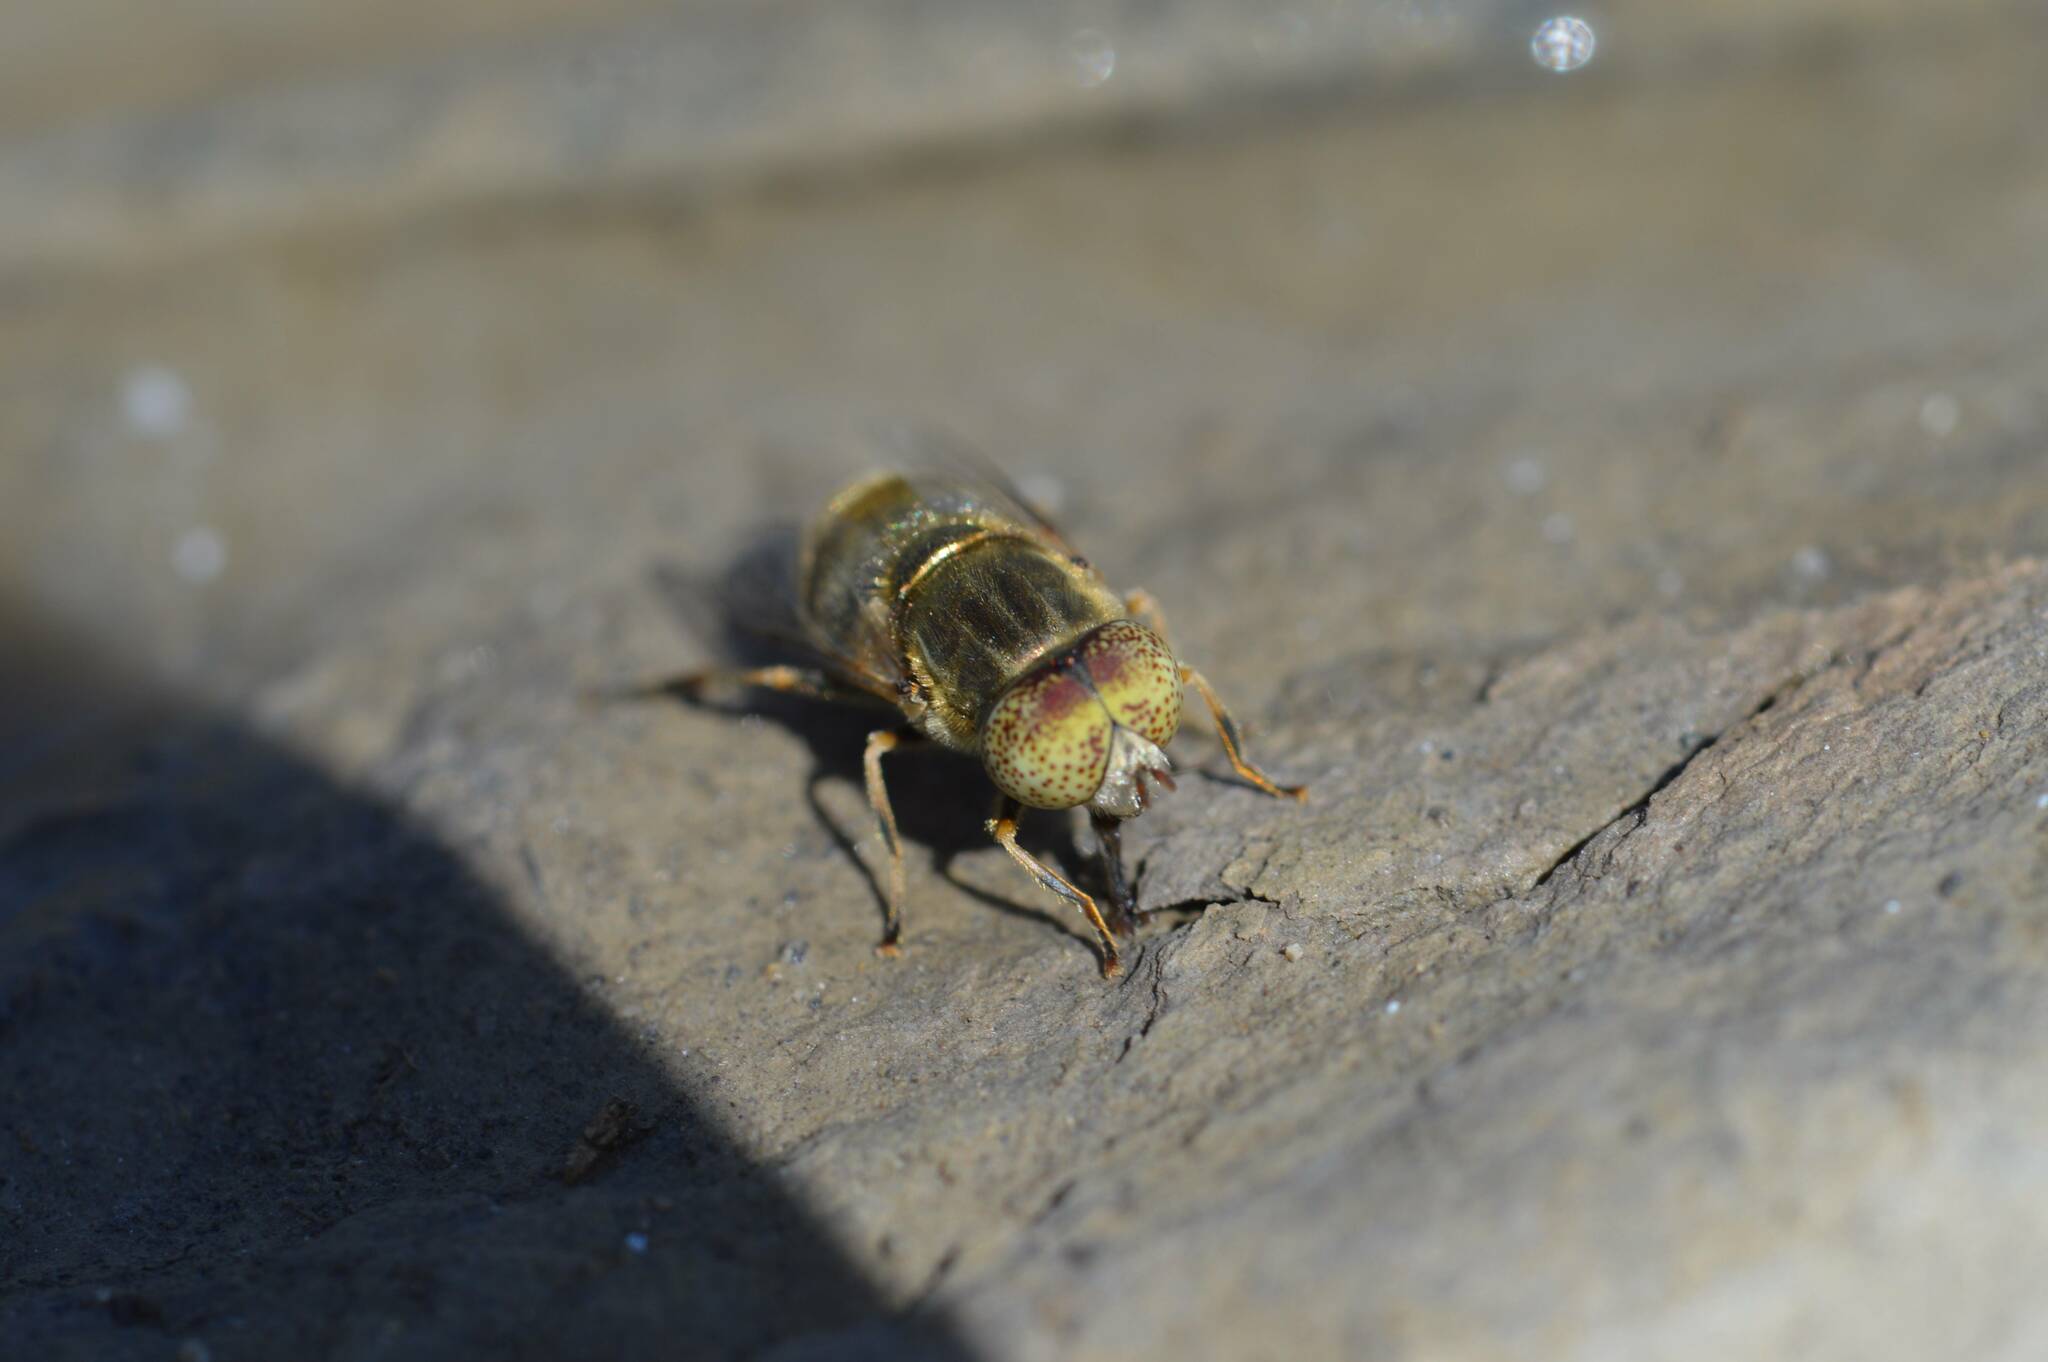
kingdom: Animalia
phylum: Arthropoda
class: Insecta
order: Diptera
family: Syrphidae
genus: Eristalinus
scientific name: Eristalinus aeneus
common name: Syrphid fly
